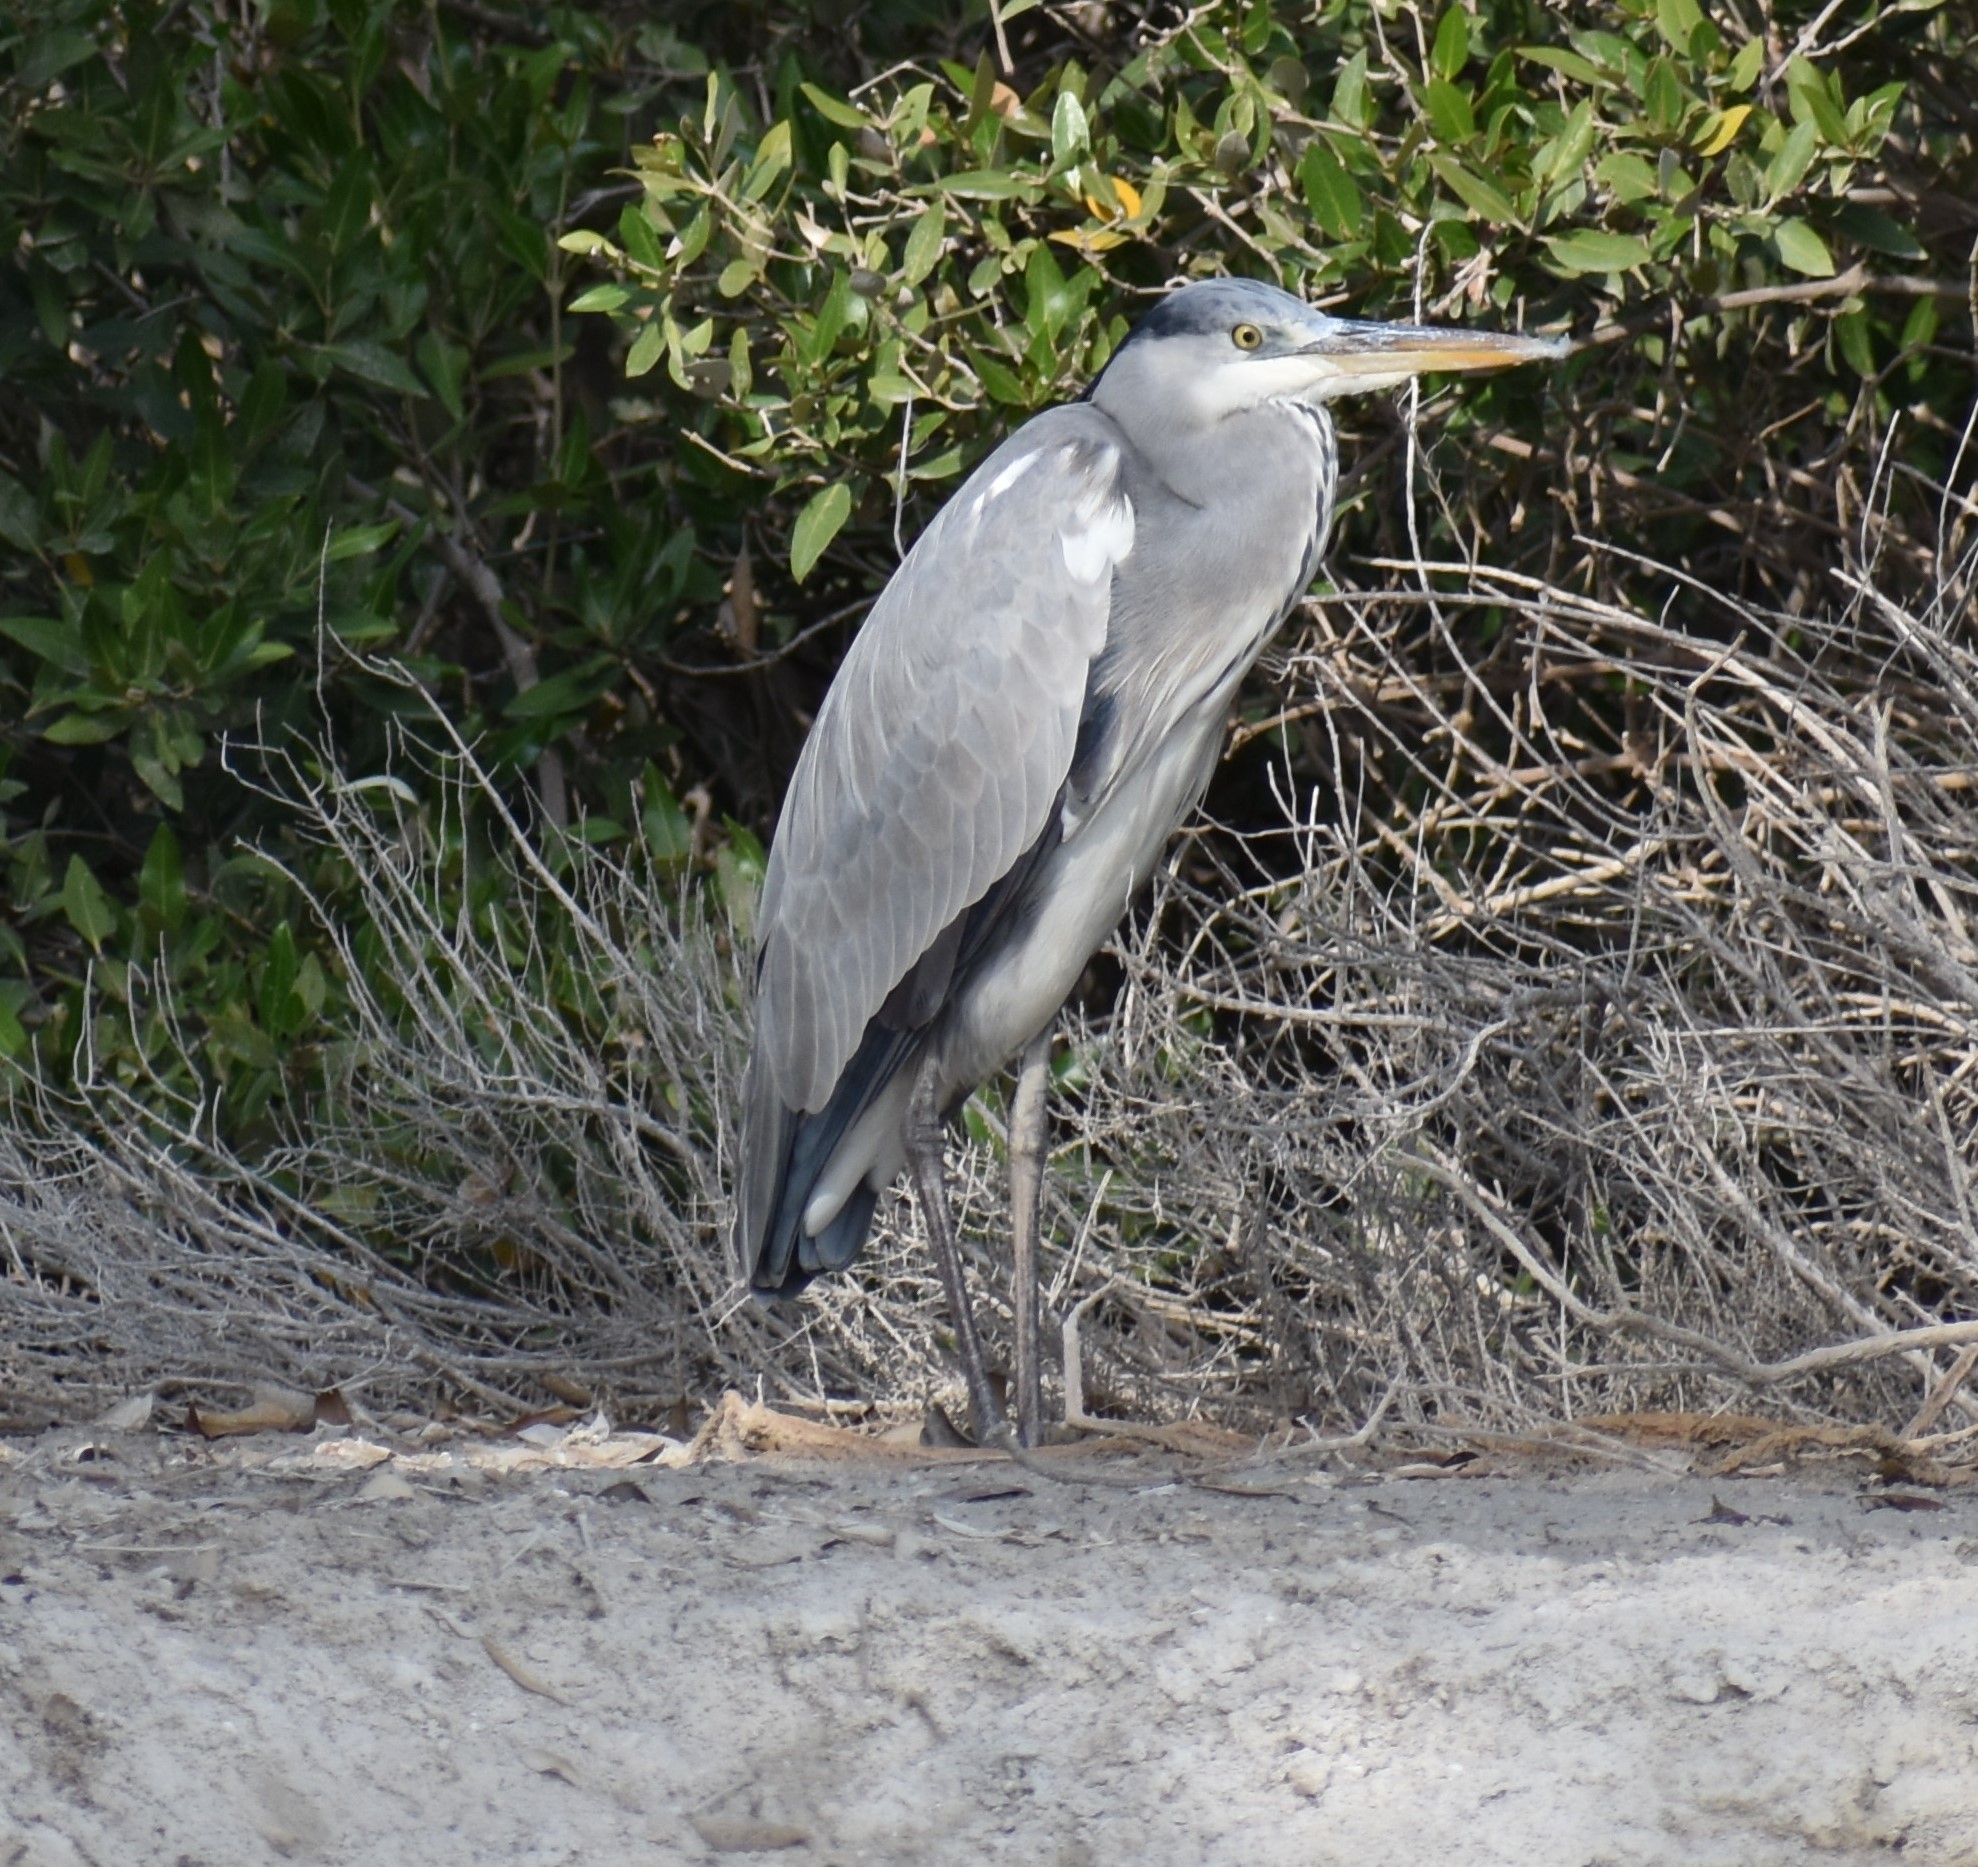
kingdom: Animalia
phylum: Chordata
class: Aves
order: Pelecaniformes
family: Ardeidae
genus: Ardea
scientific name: Ardea cinerea
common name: Grey heron
